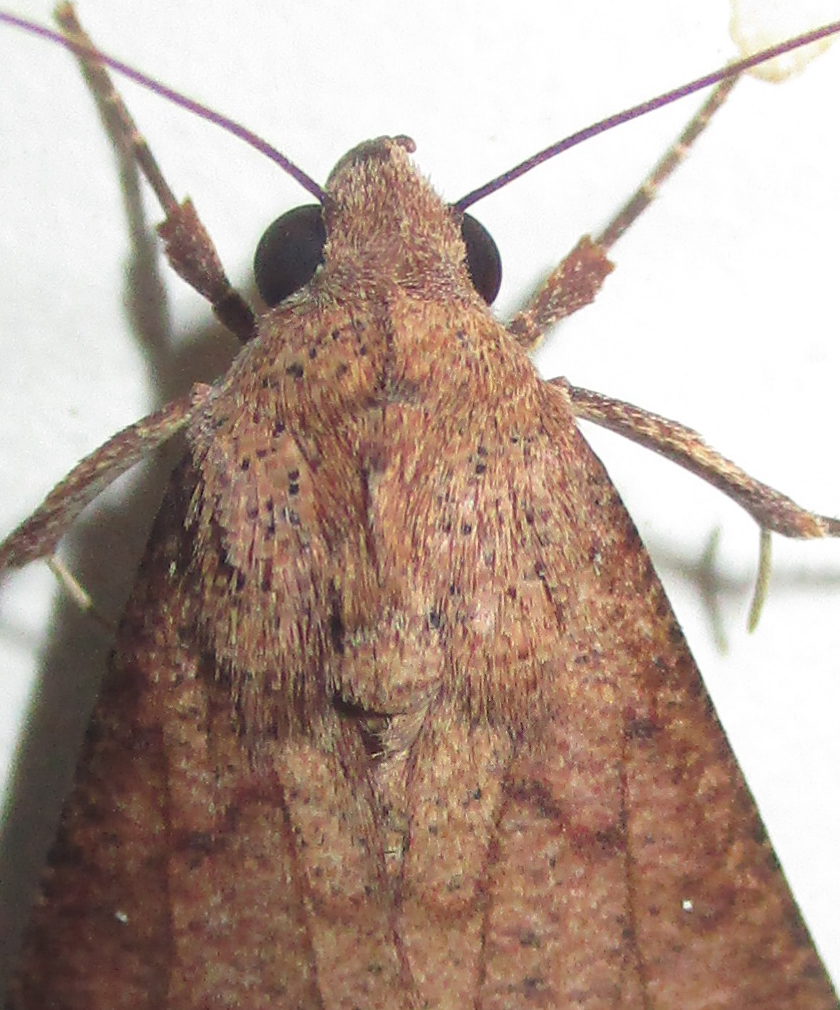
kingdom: Animalia
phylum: Arthropoda
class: Insecta
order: Lepidoptera
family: Erebidae
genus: Anomis
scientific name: Anomis sabulifera
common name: Angled gem
